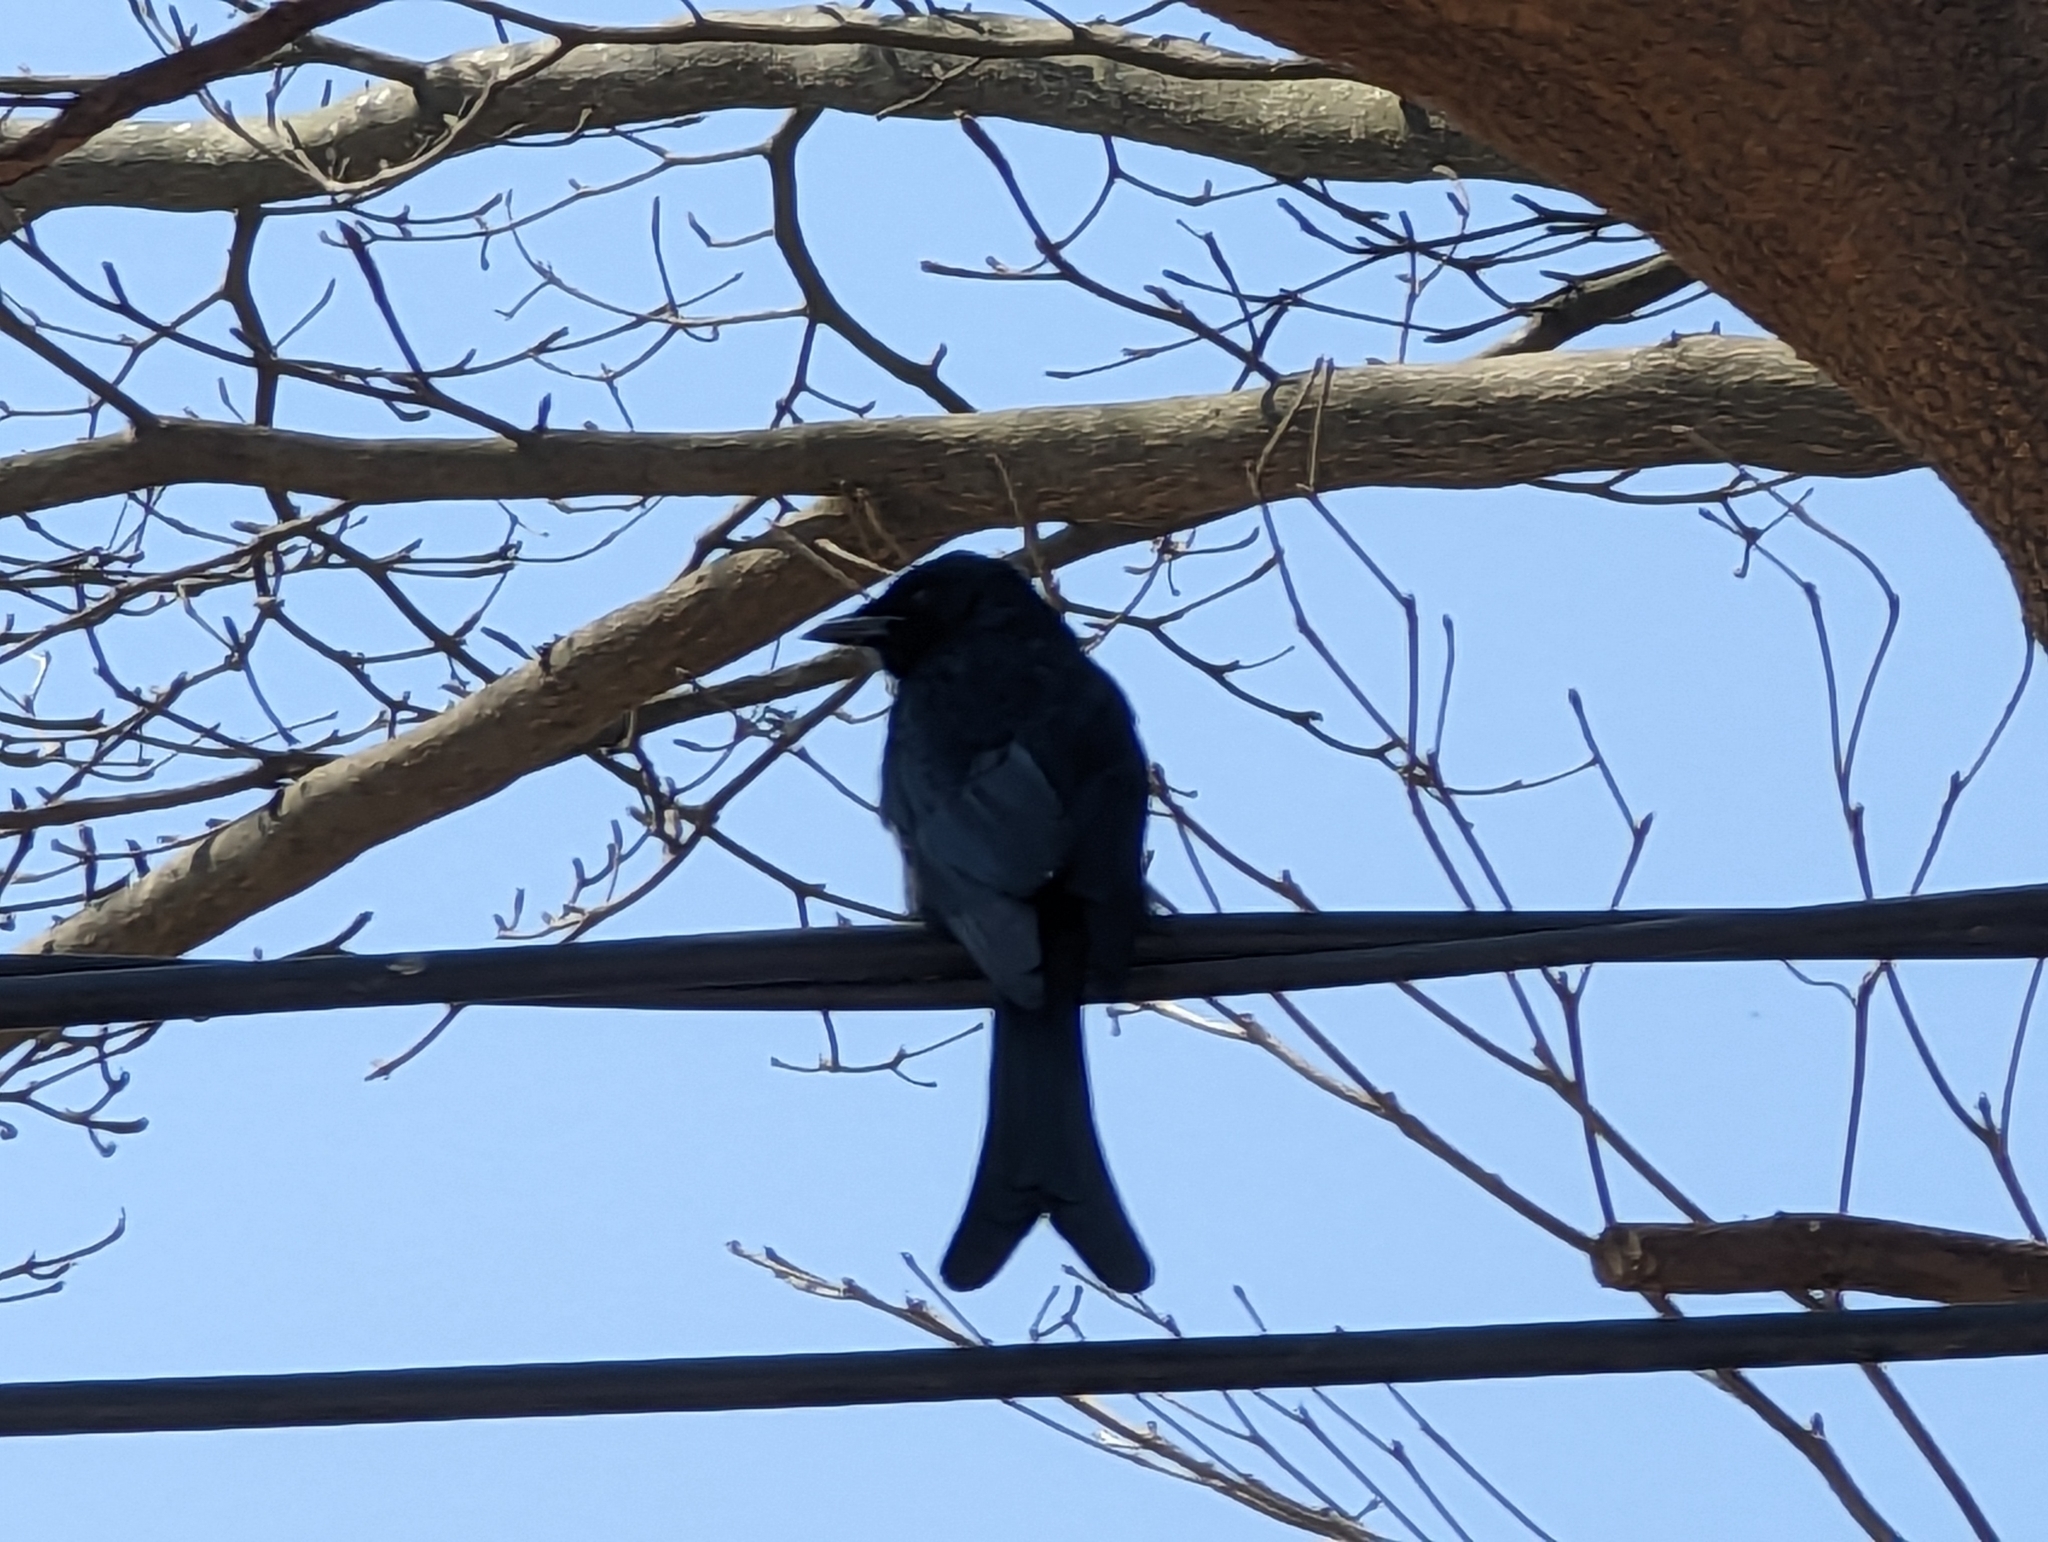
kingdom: Animalia
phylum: Chordata
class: Aves
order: Passeriformes
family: Dicruridae
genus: Dicrurus
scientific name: Dicrurus macrocercus
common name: Black drongo
